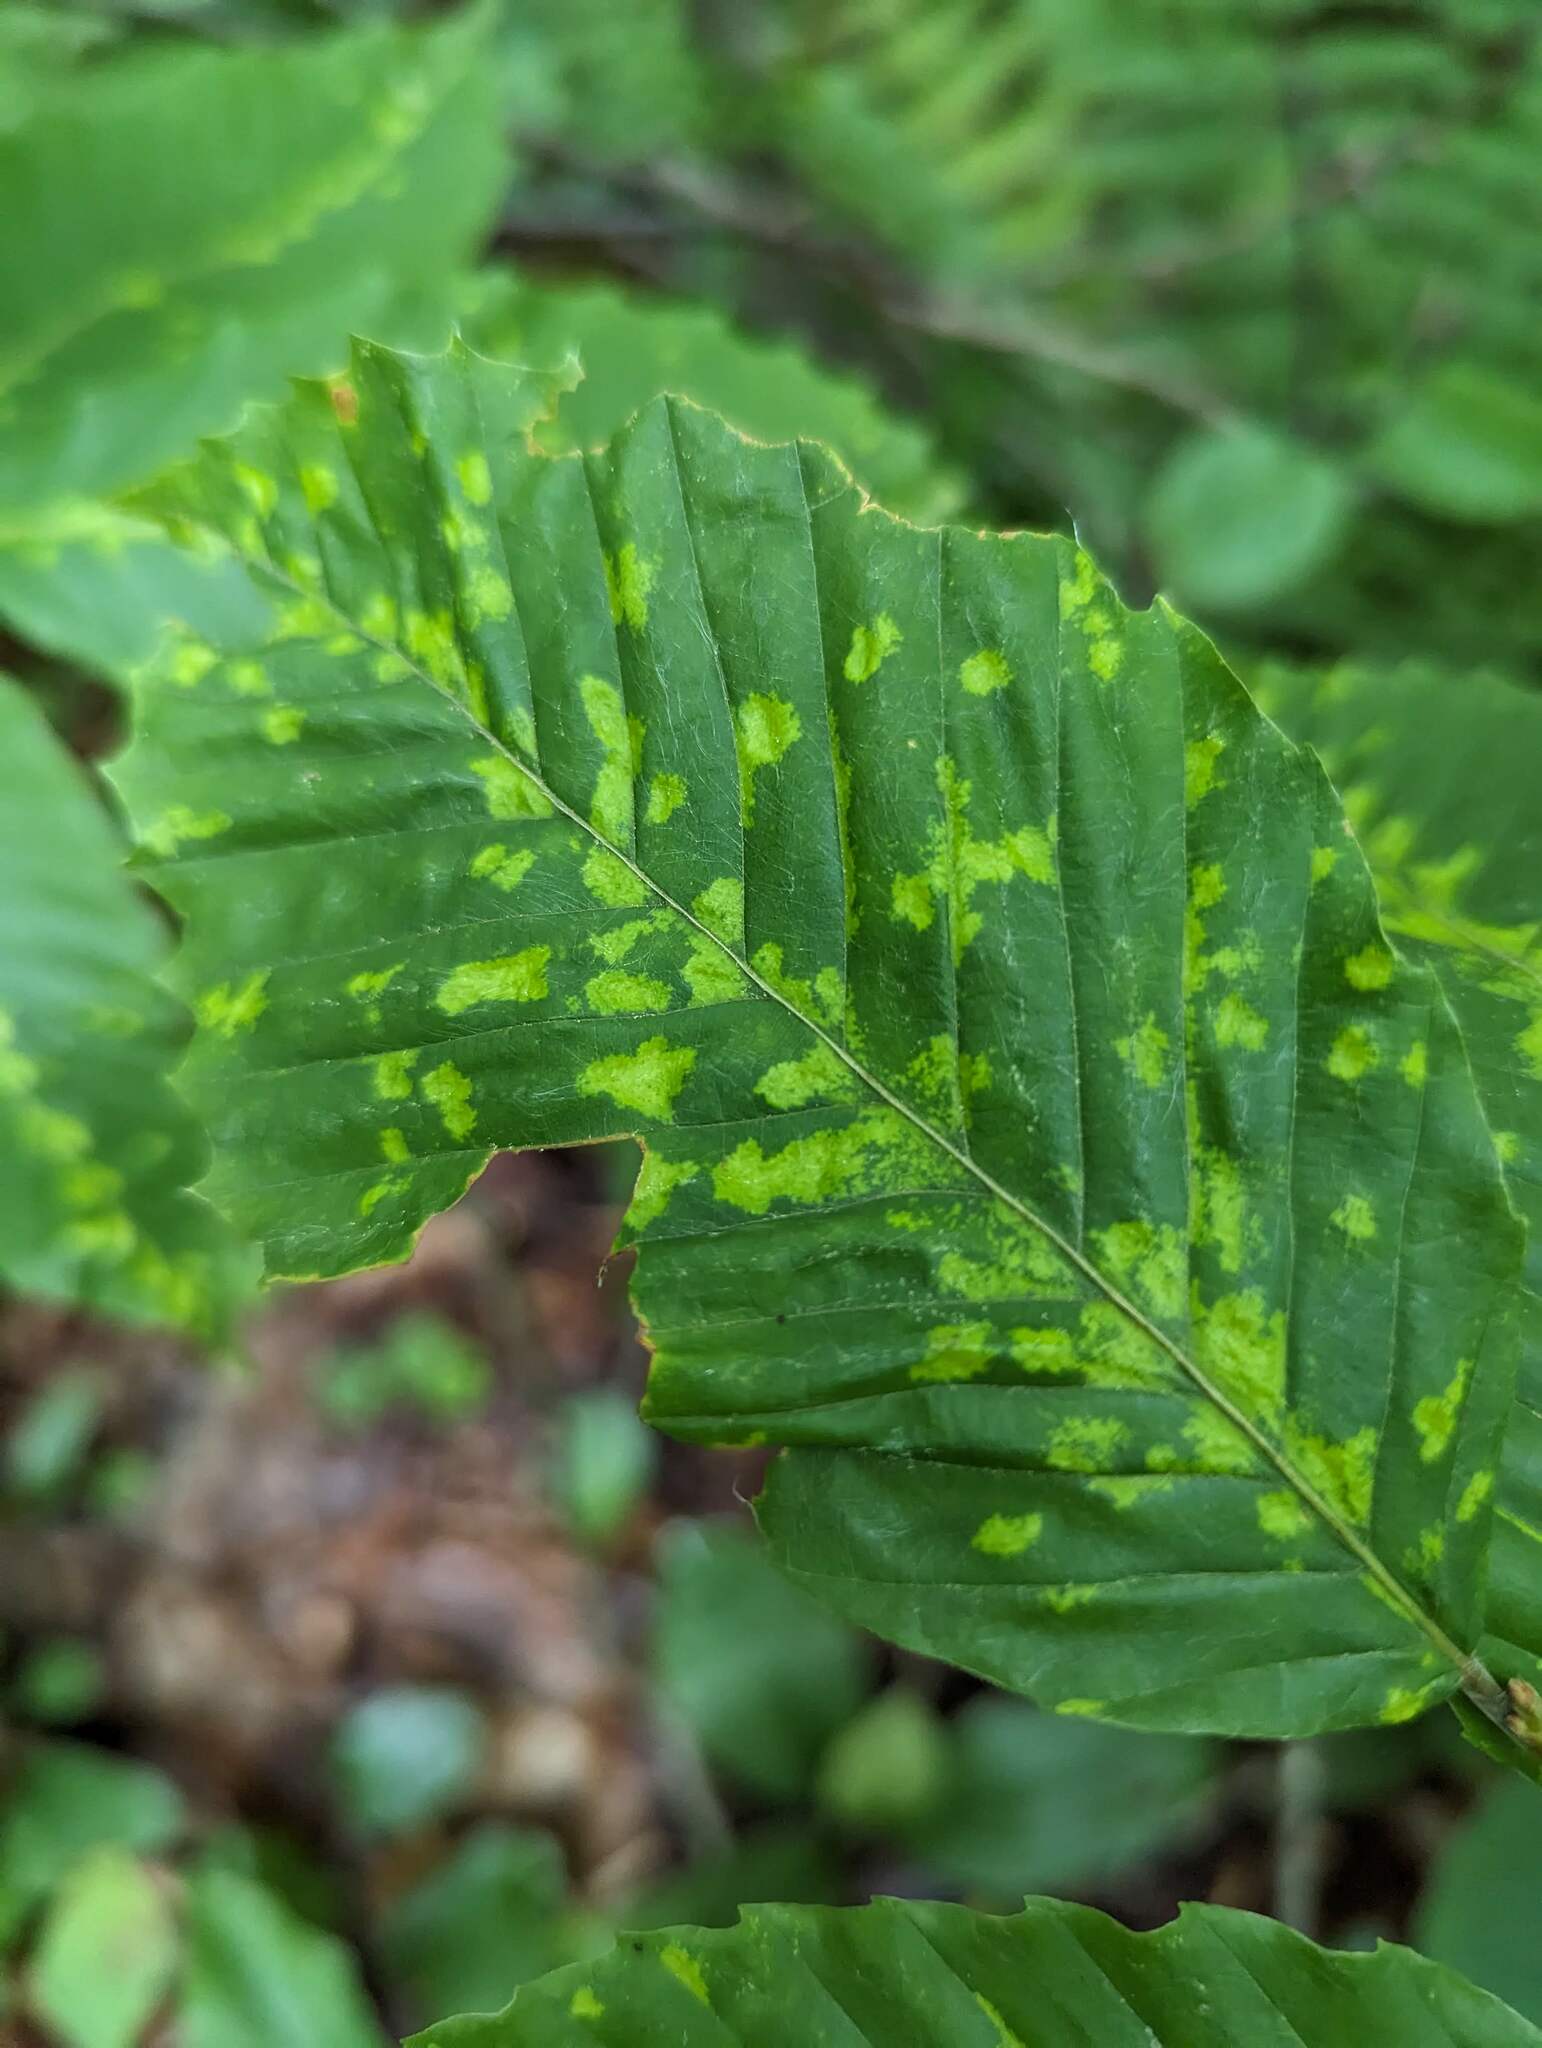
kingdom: Animalia
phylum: Arthropoda
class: Arachnida
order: Trombidiformes
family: Eriophyidae
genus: Acalitus
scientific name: Acalitus
